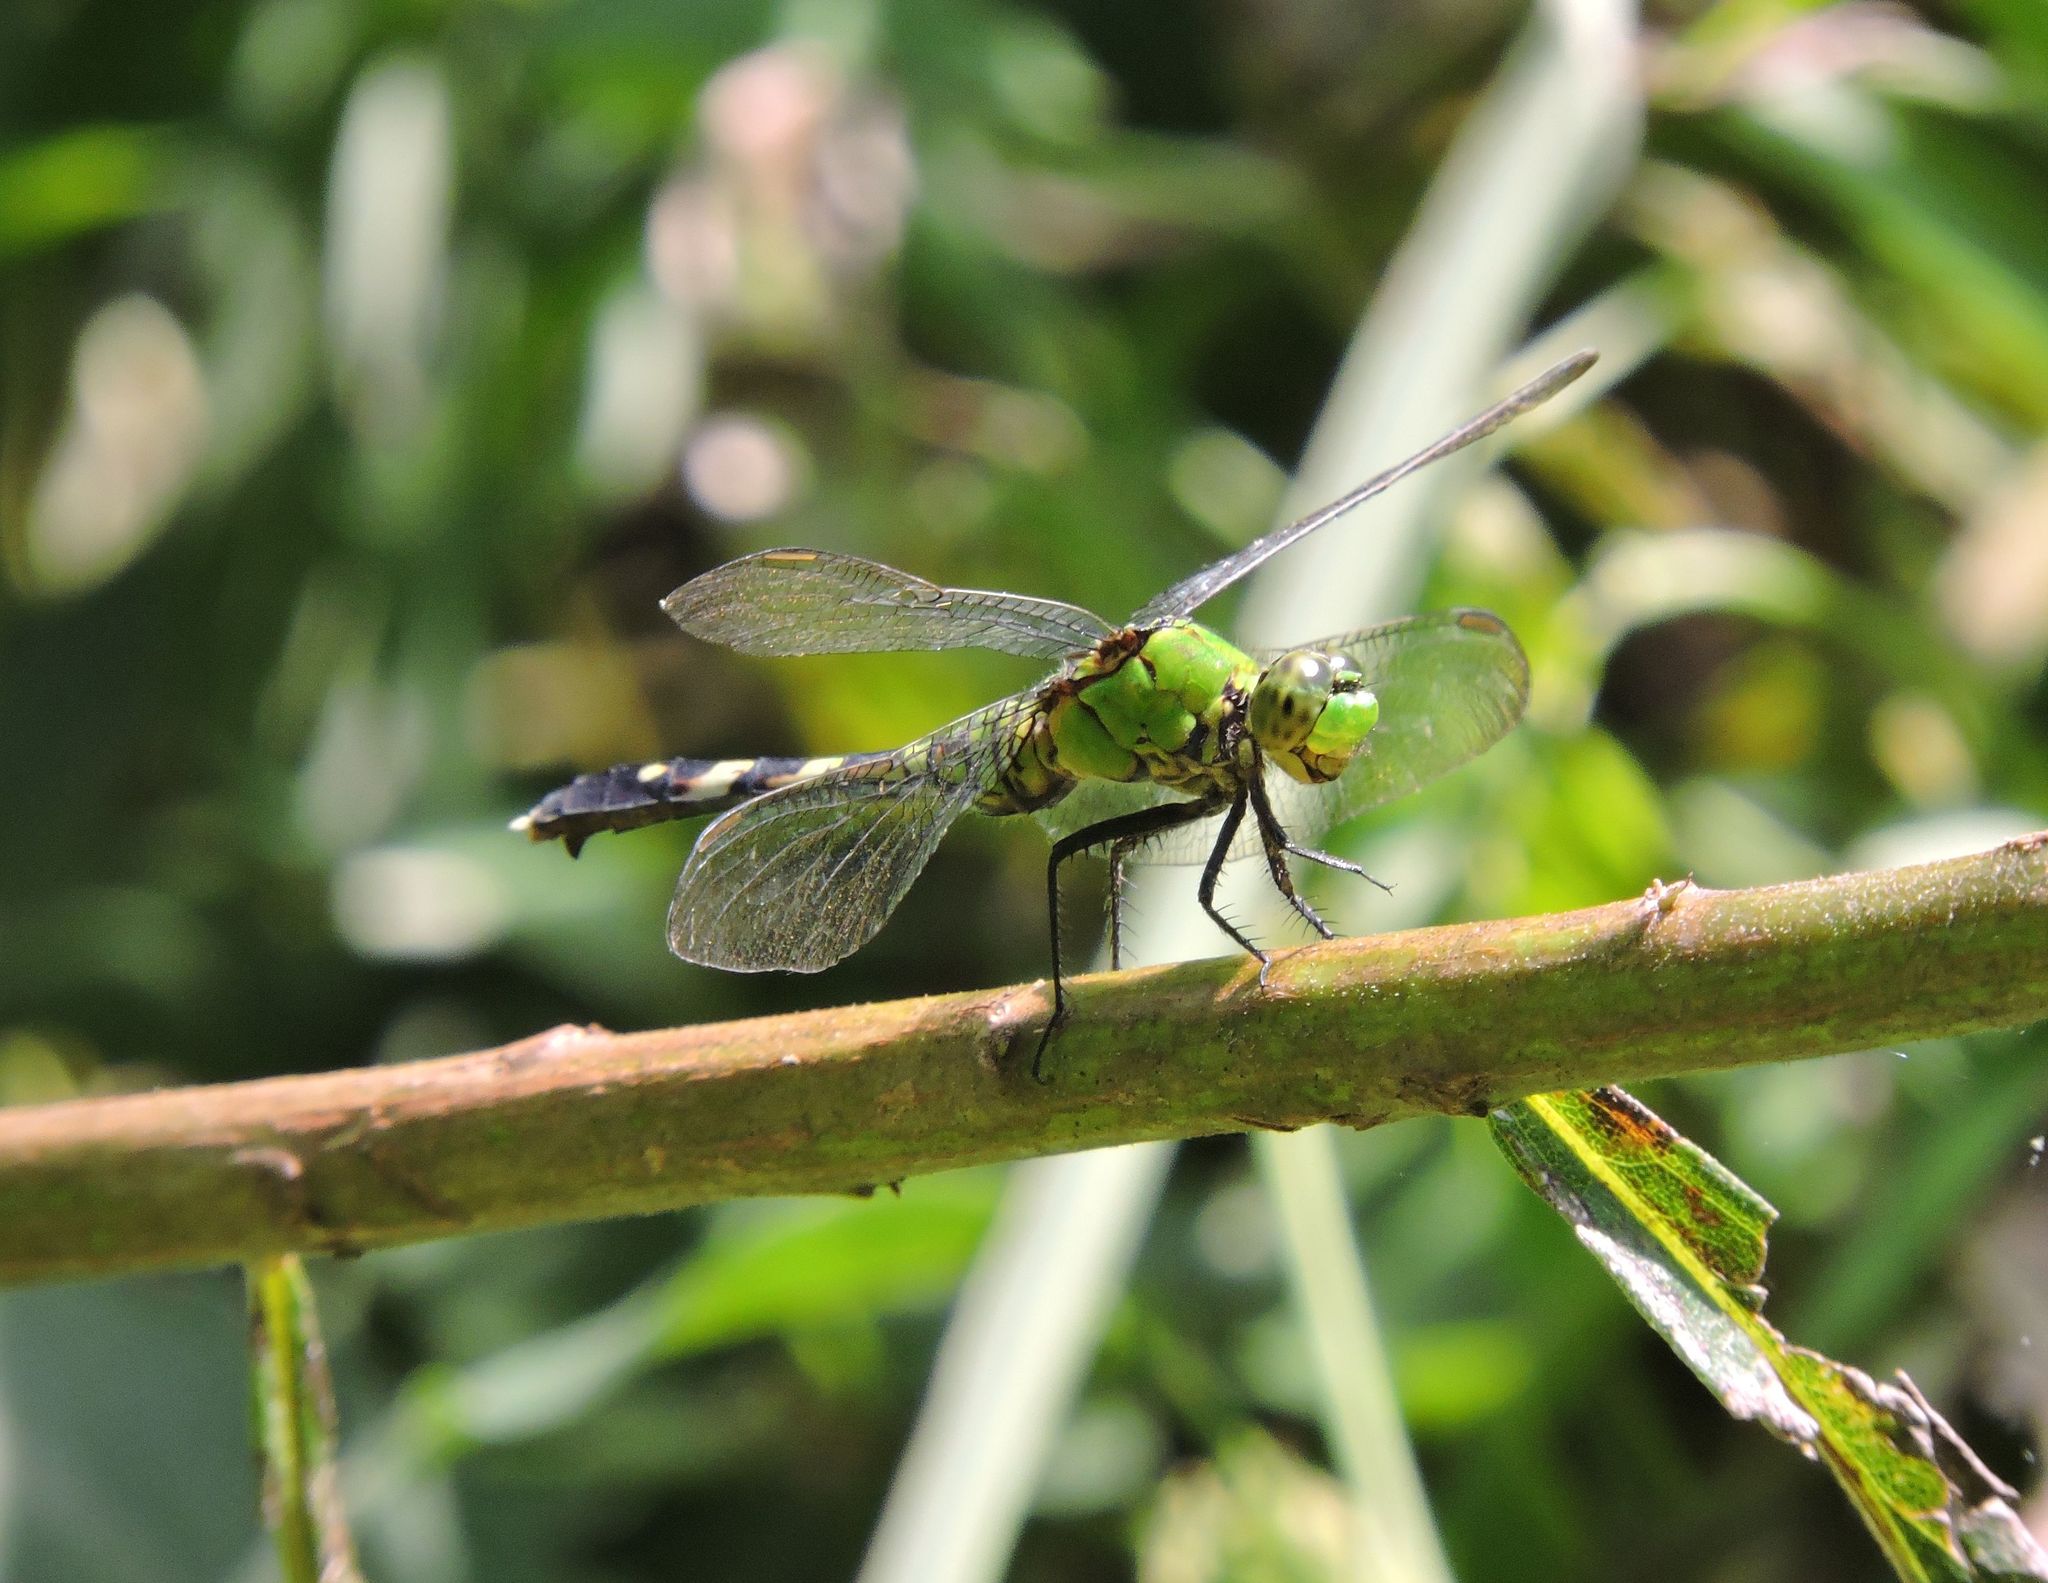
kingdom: Animalia
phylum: Arthropoda
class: Insecta
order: Odonata
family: Libellulidae
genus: Erythemis
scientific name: Erythemis simplicicollis
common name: Eastern pondhawk
